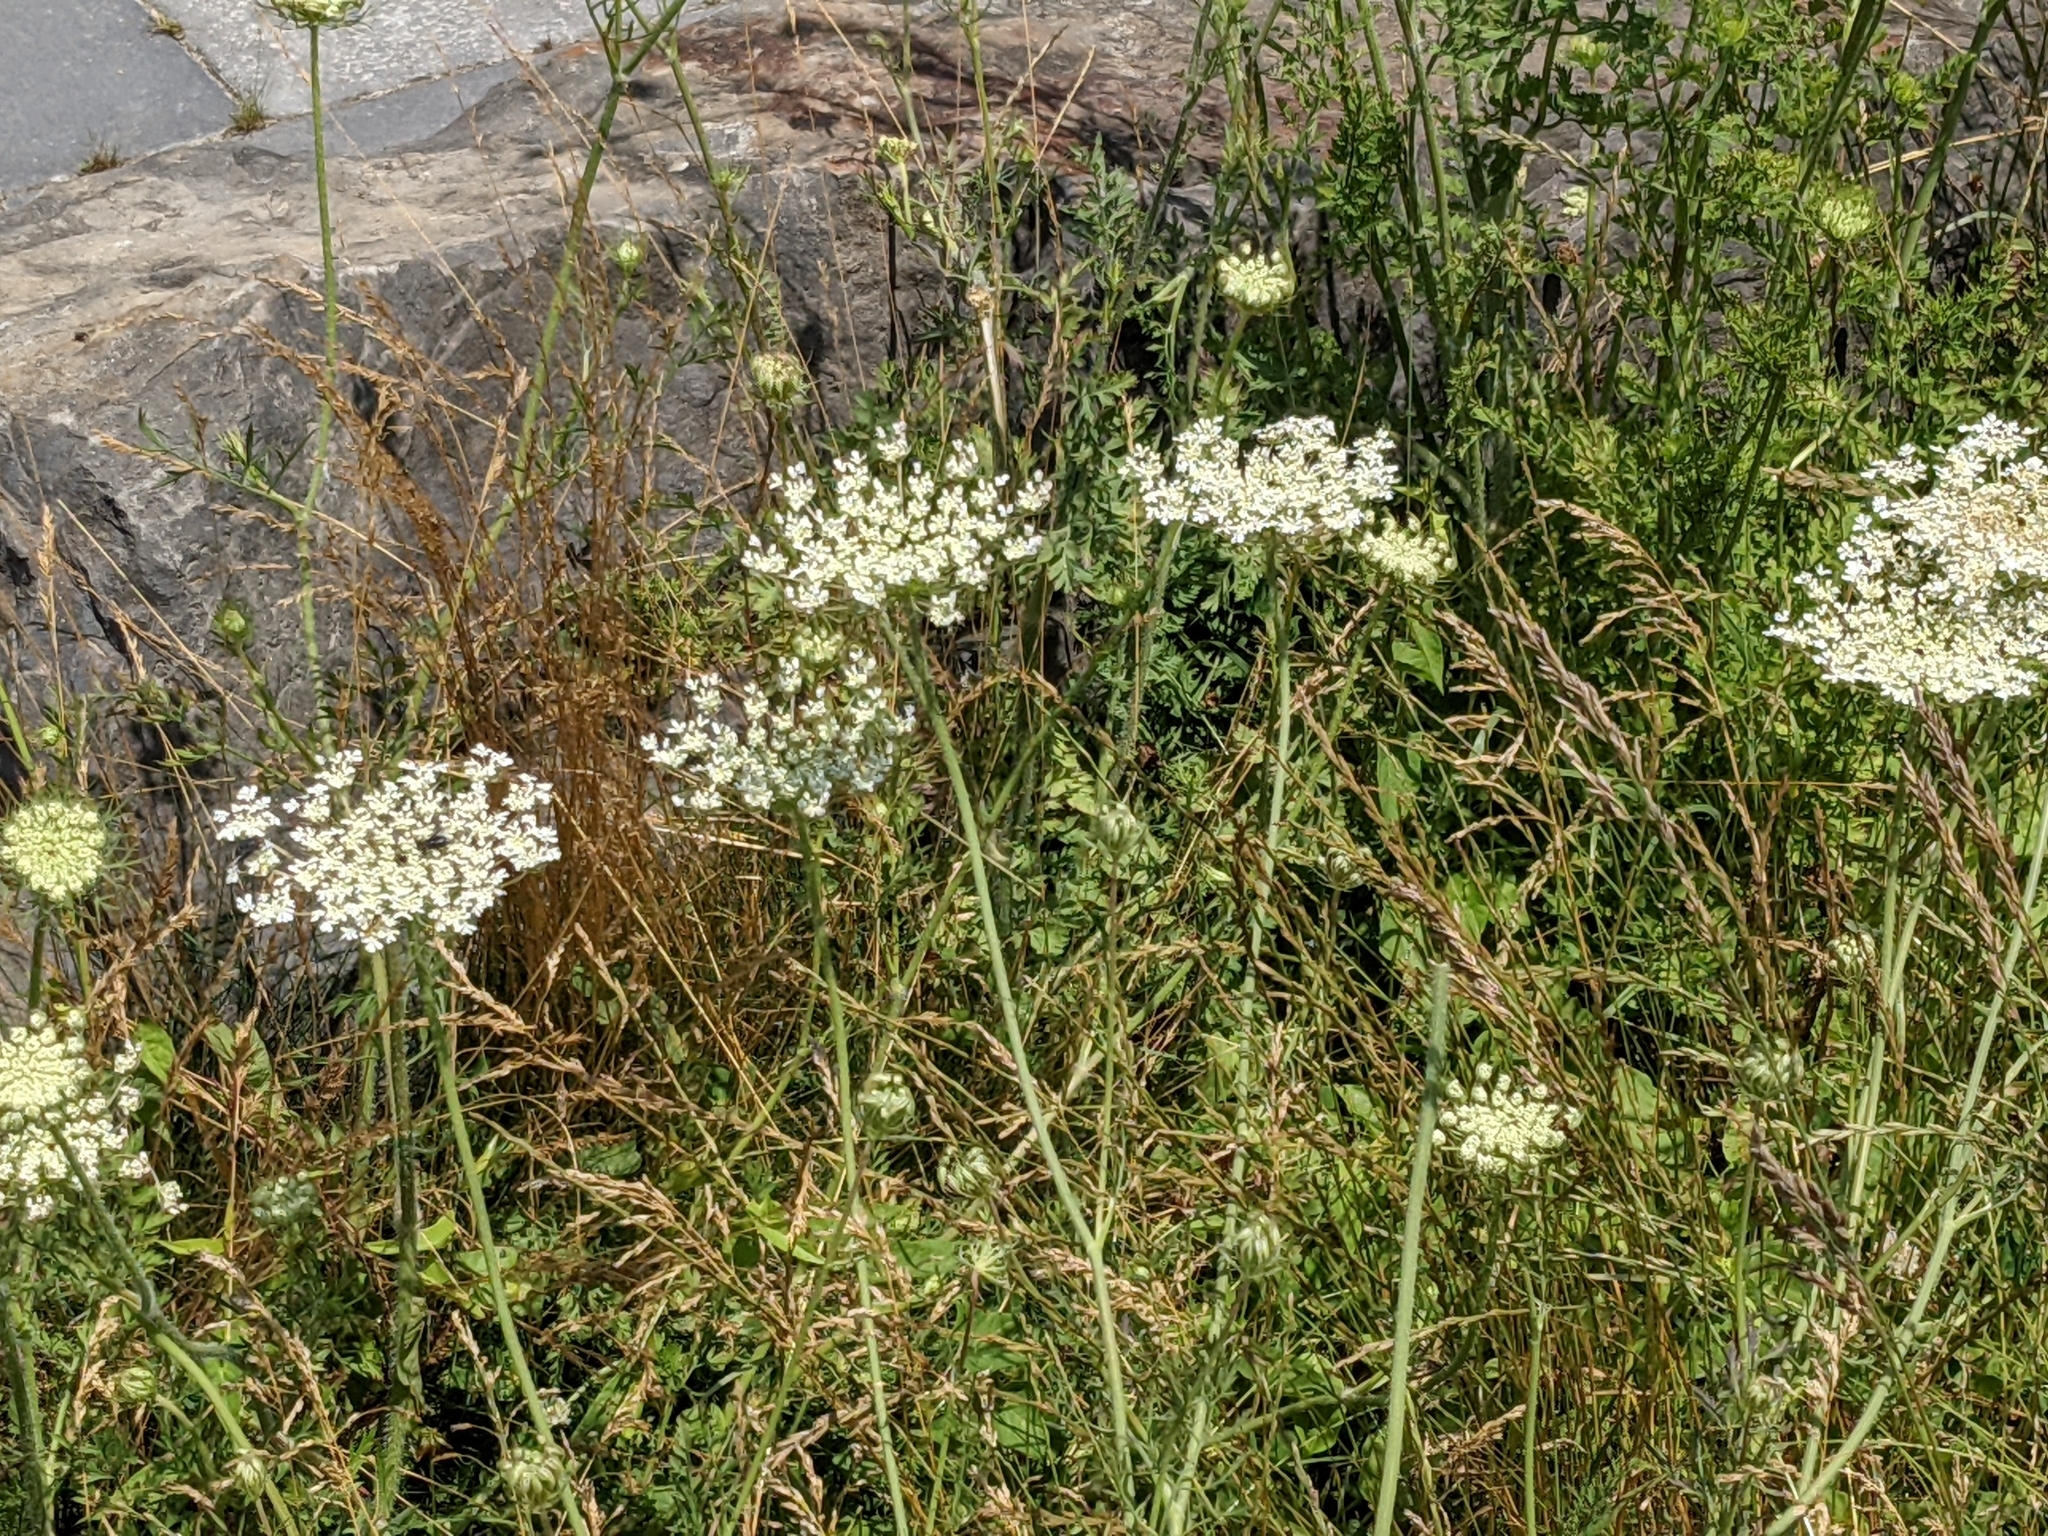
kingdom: Plantae
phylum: Tracheophyta
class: Magnoliopsida
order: Apiales
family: Apiaceae
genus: Daucus
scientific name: Daucus carota
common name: Wild carrot
